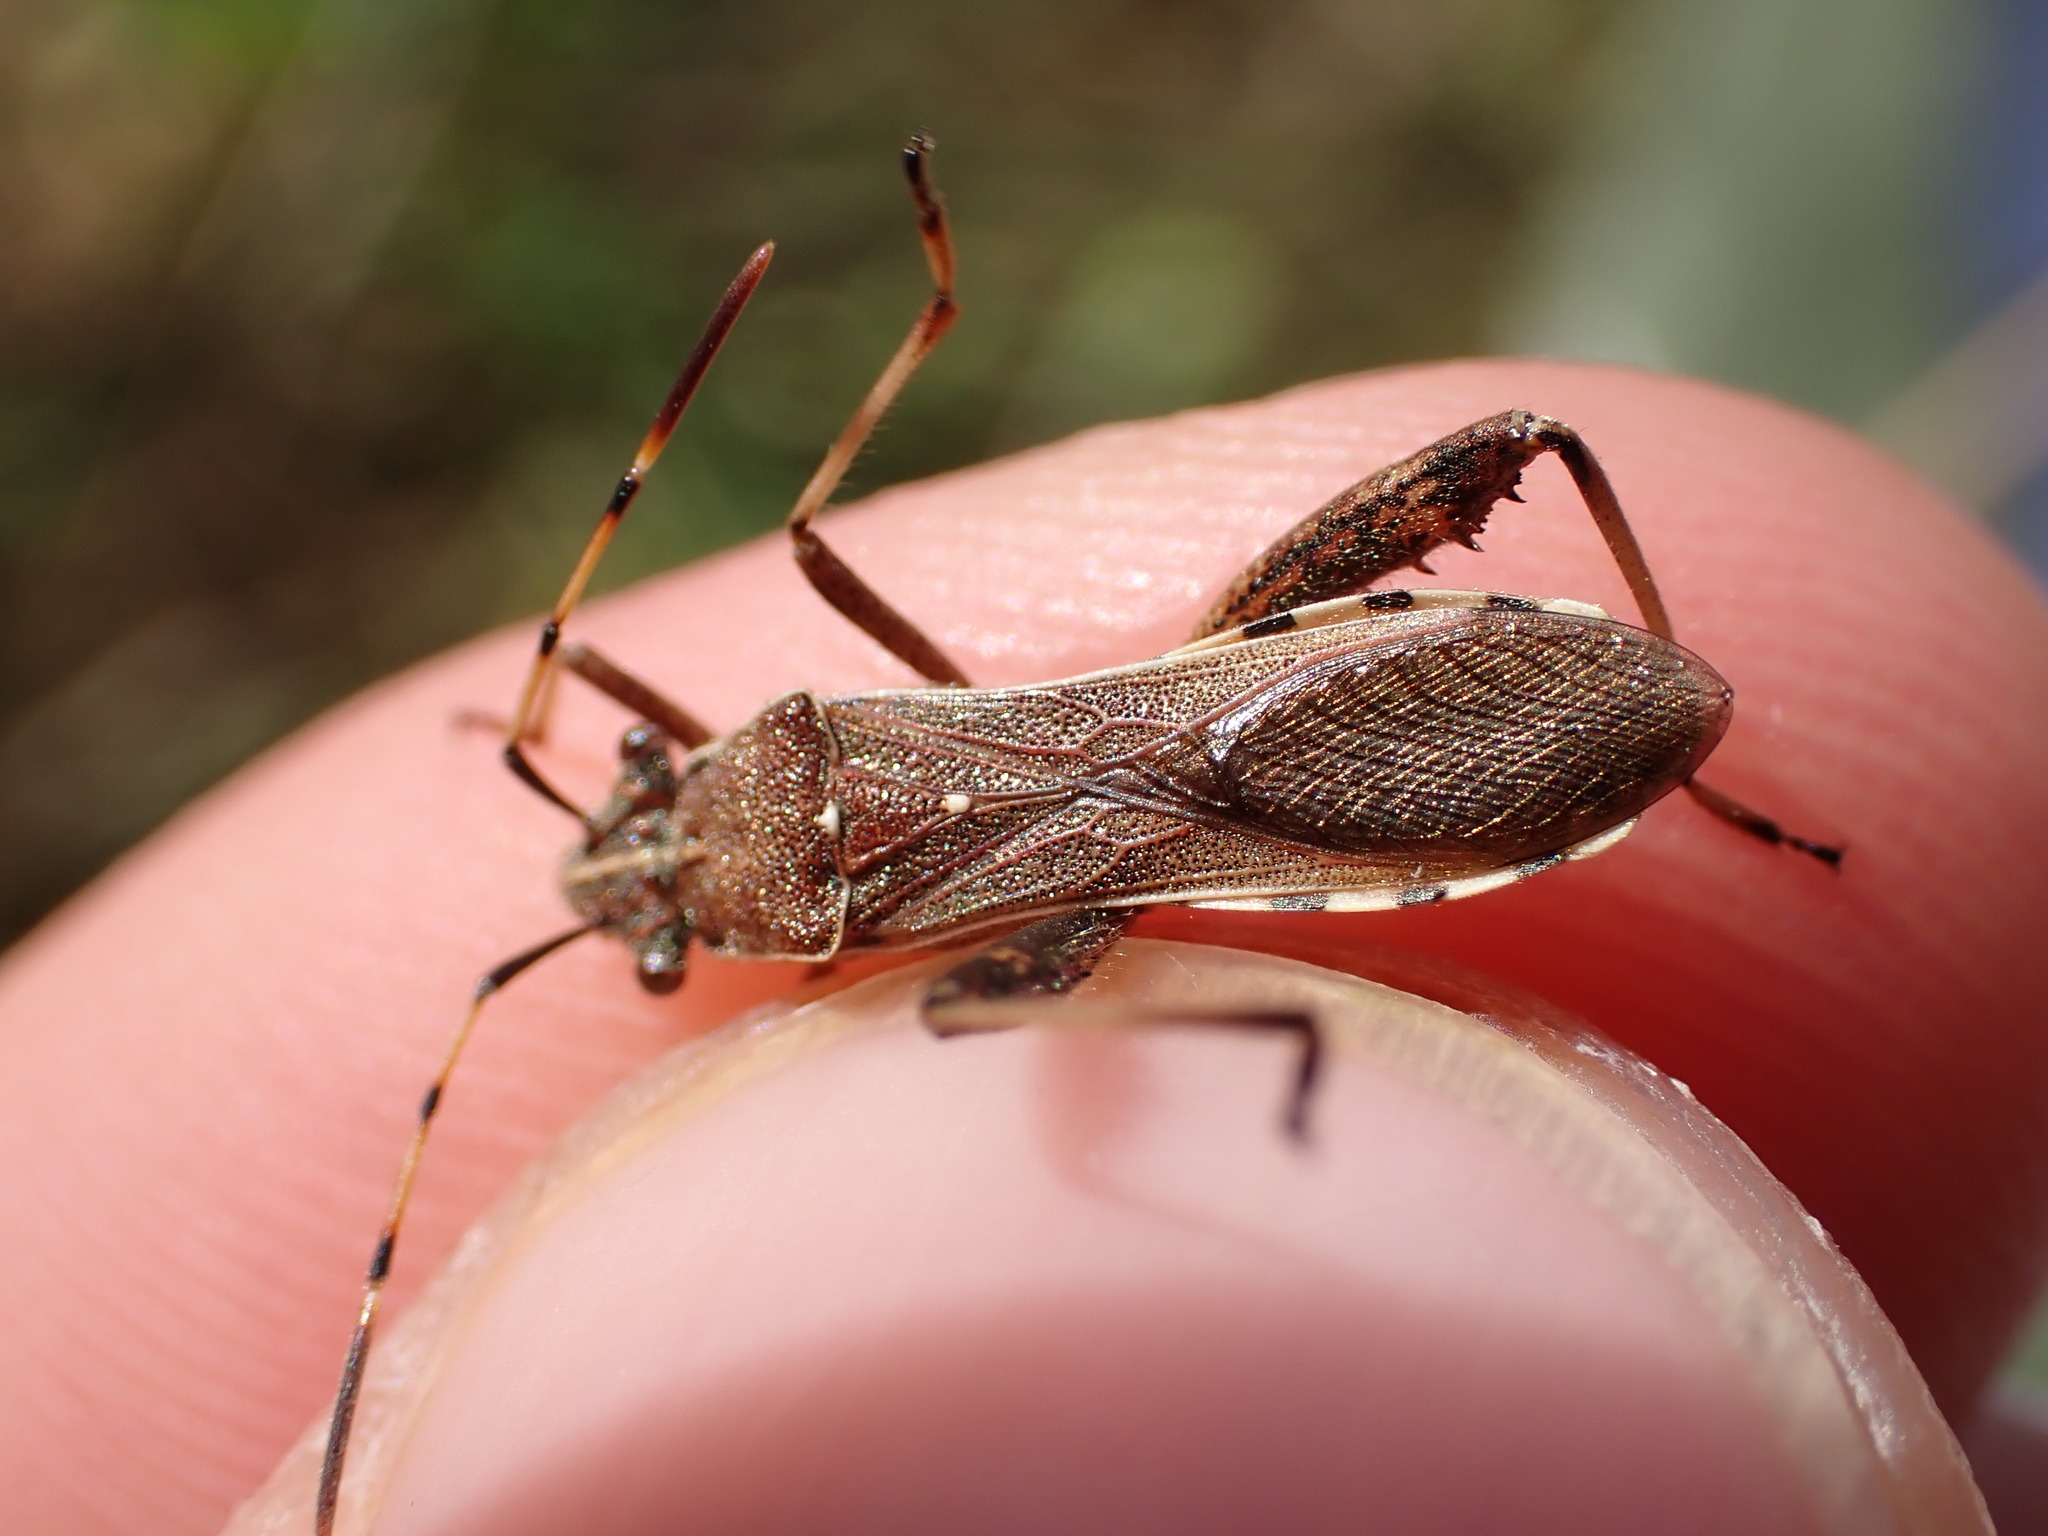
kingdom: Animalia
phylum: Arthropoda
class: Insecta
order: Hemiptera
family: Alydidae
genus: Camptopus
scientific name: Camptopus lateralis
